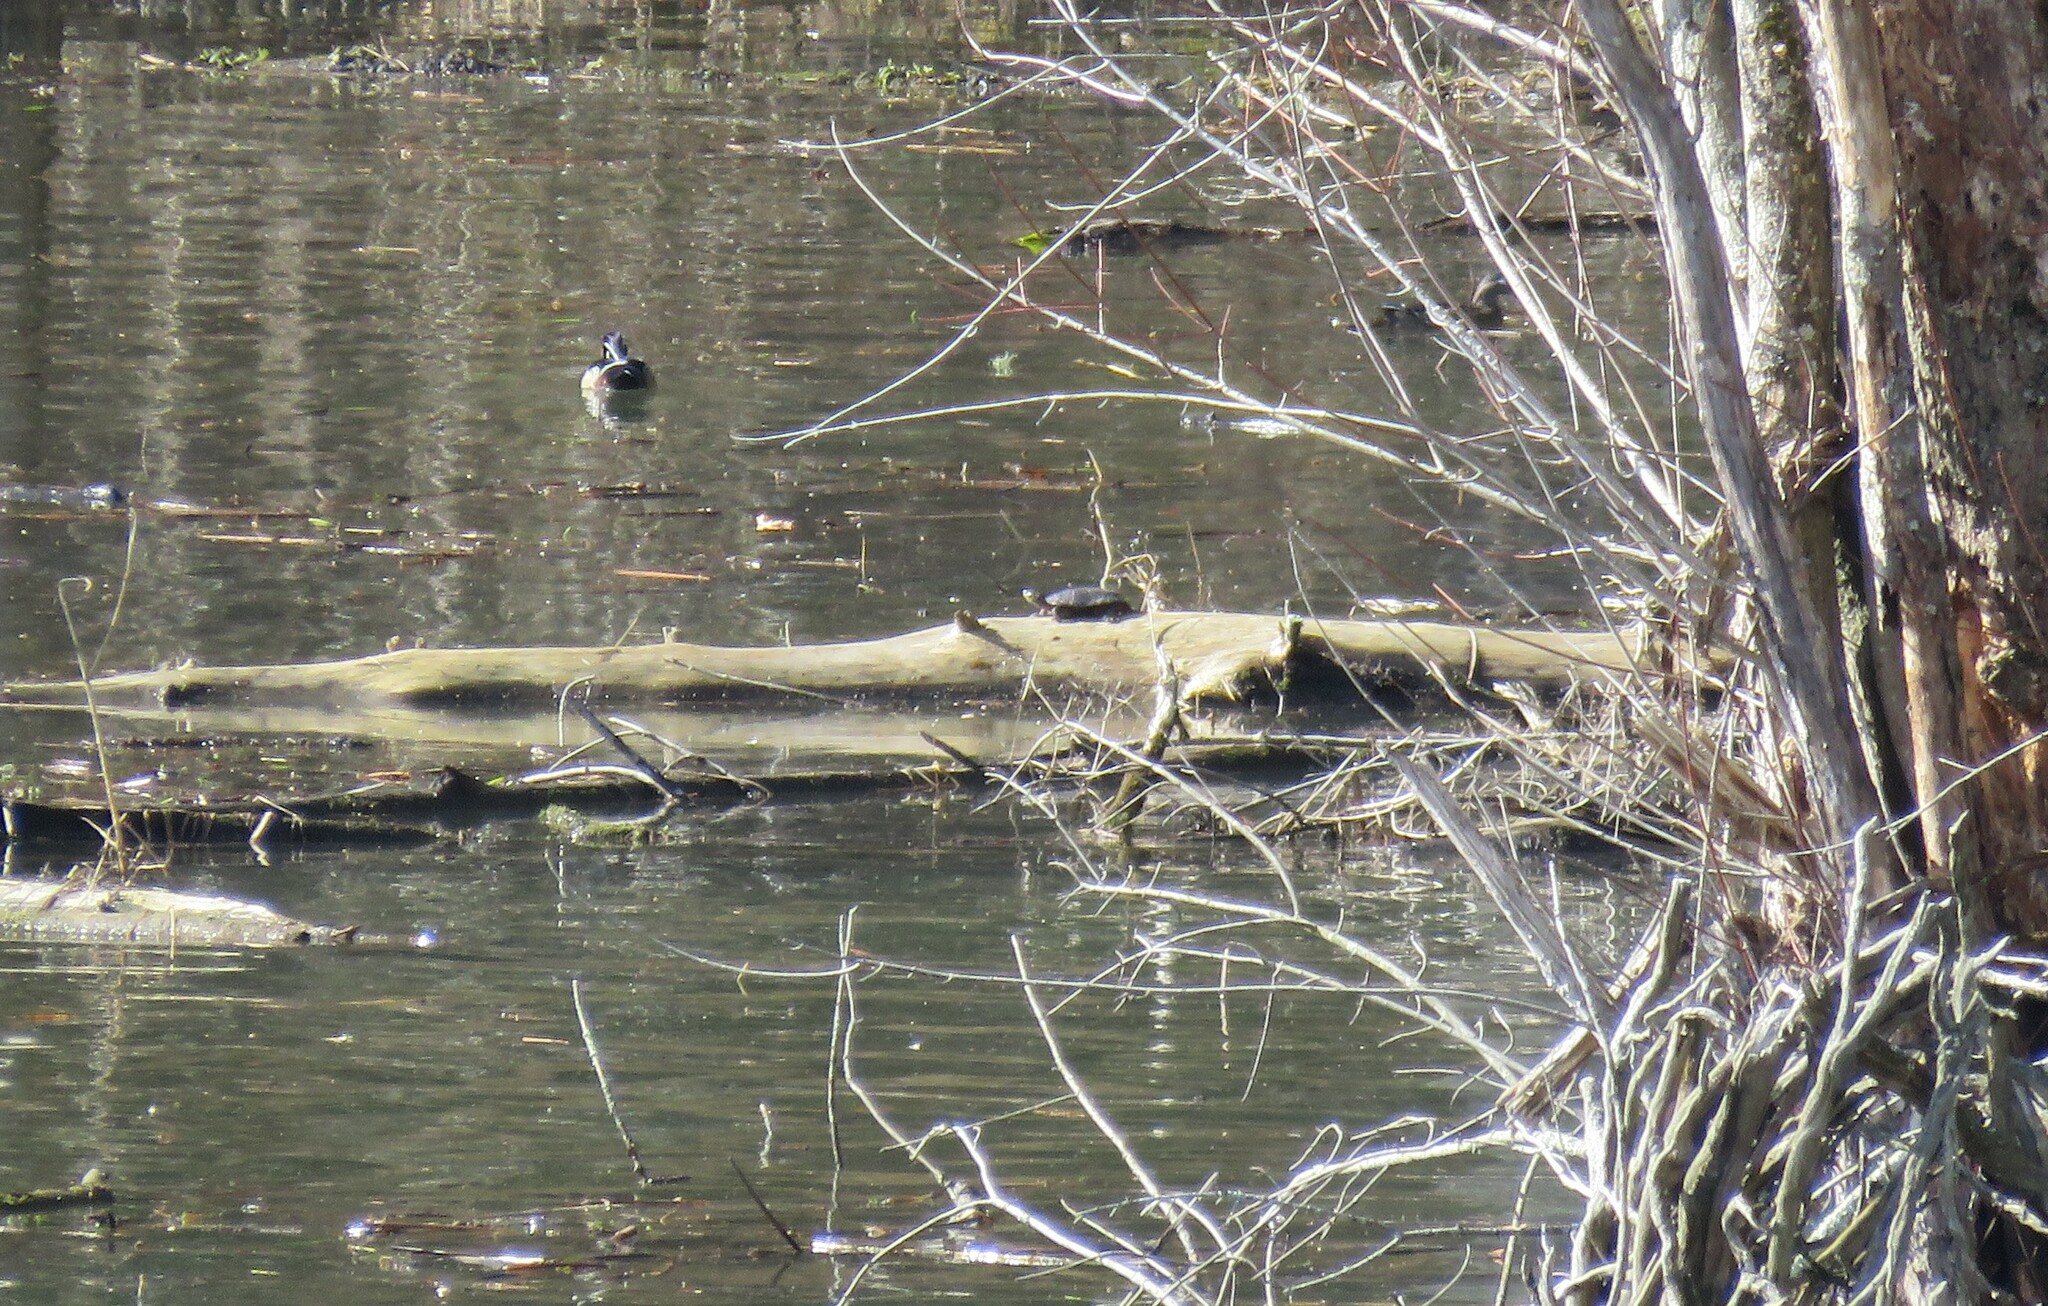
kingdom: Animalia
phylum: Chordata
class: Testudines
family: Emydidae
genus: Chrysemys
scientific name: Chrysemys picta
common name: Painted turtle
